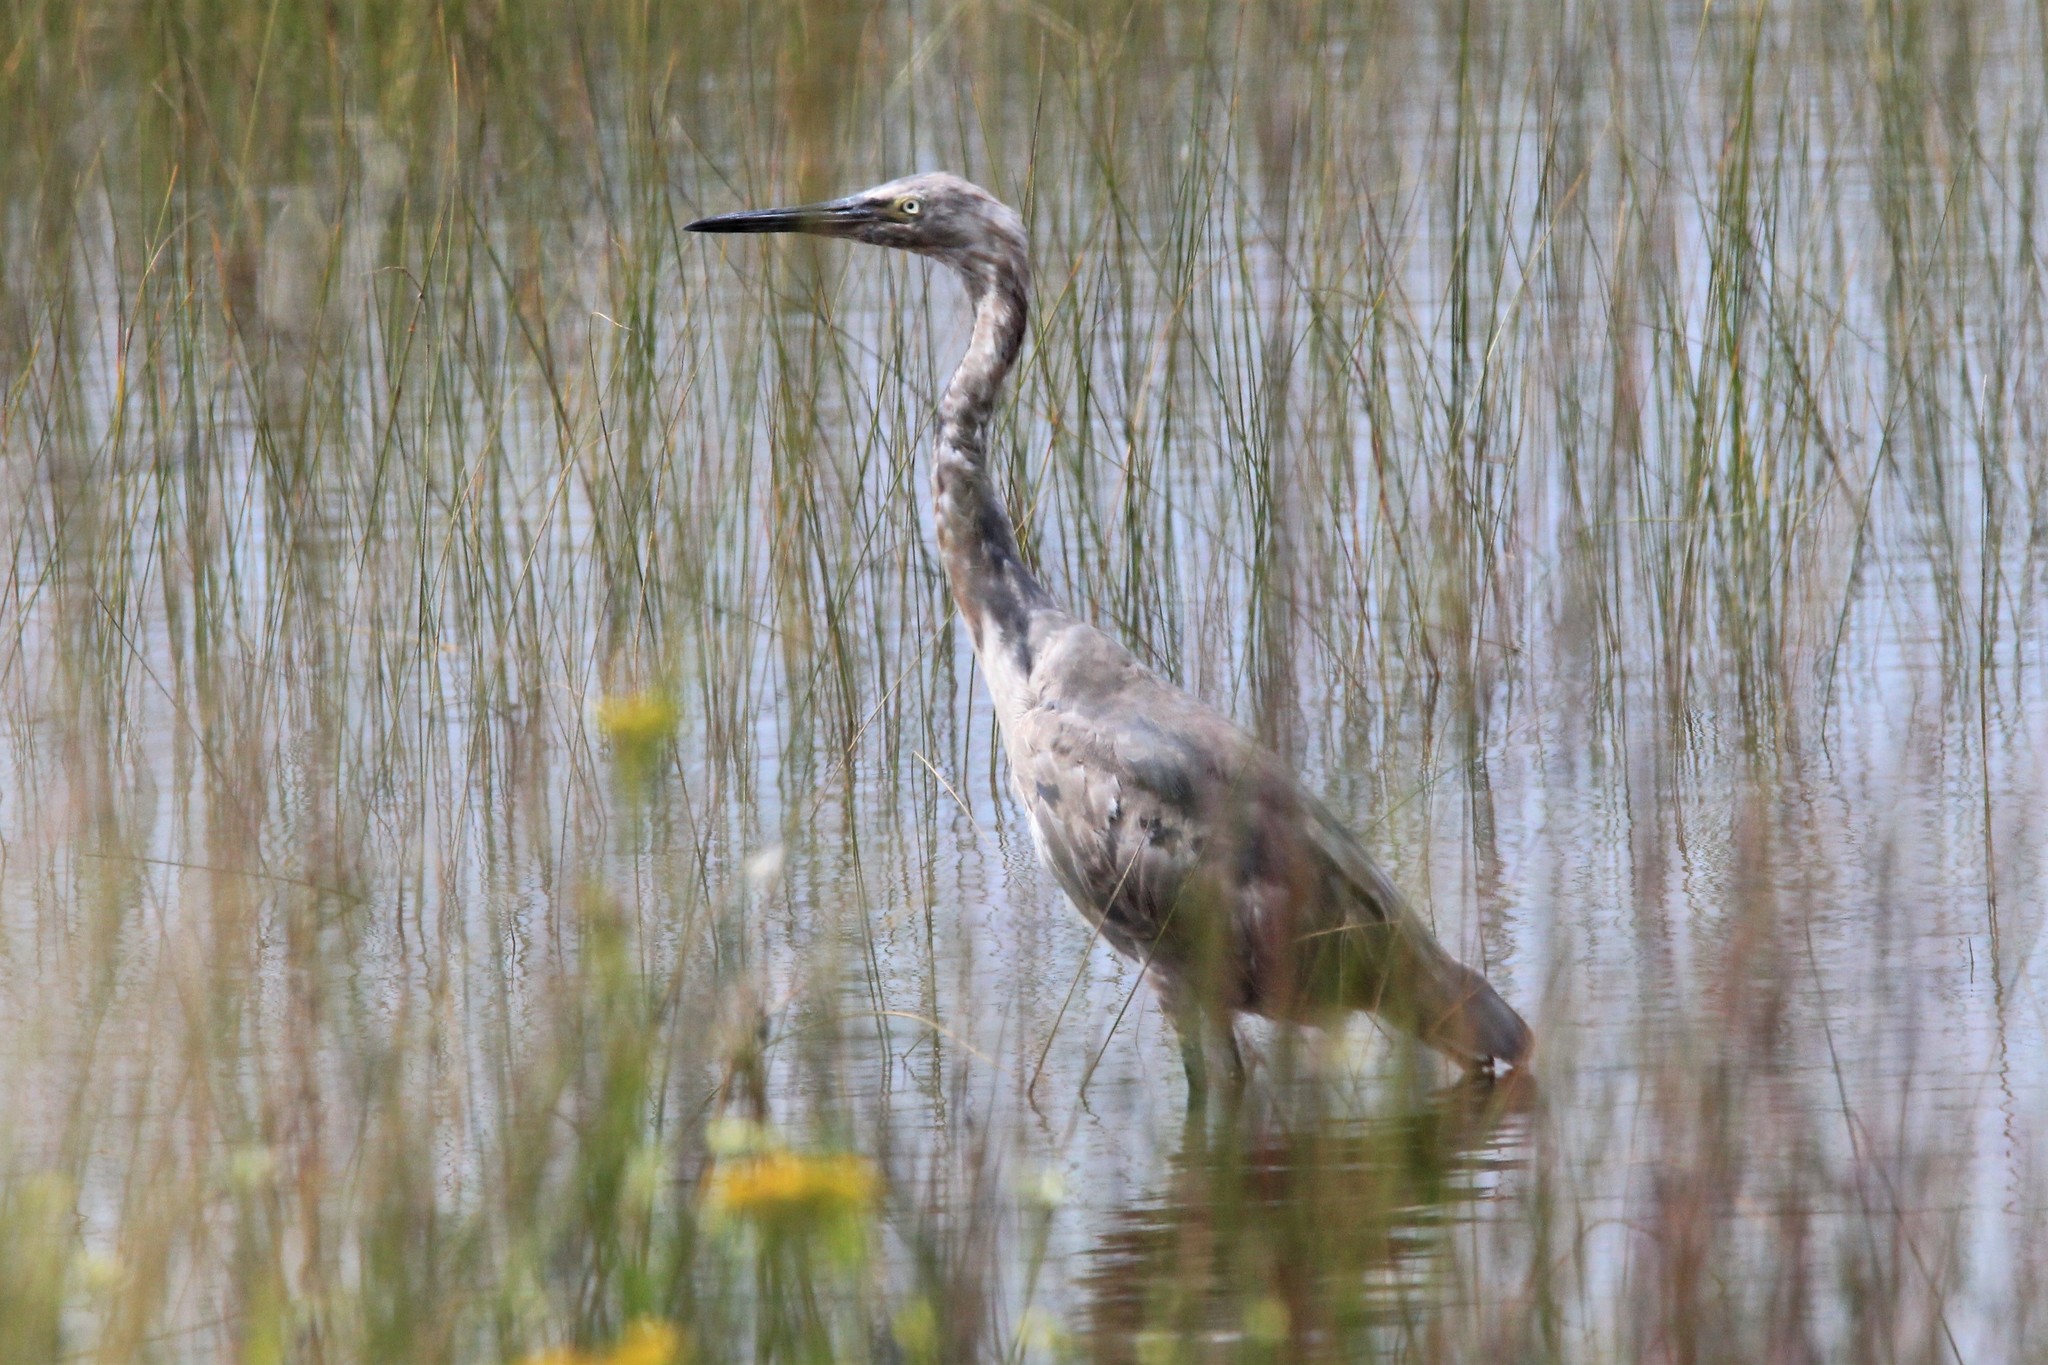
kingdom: Animalia
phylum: Chordata
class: Aves
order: Pelecaniformes
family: Ardeidae
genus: Egretta
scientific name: Egretta rufescens
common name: Reddish egret
